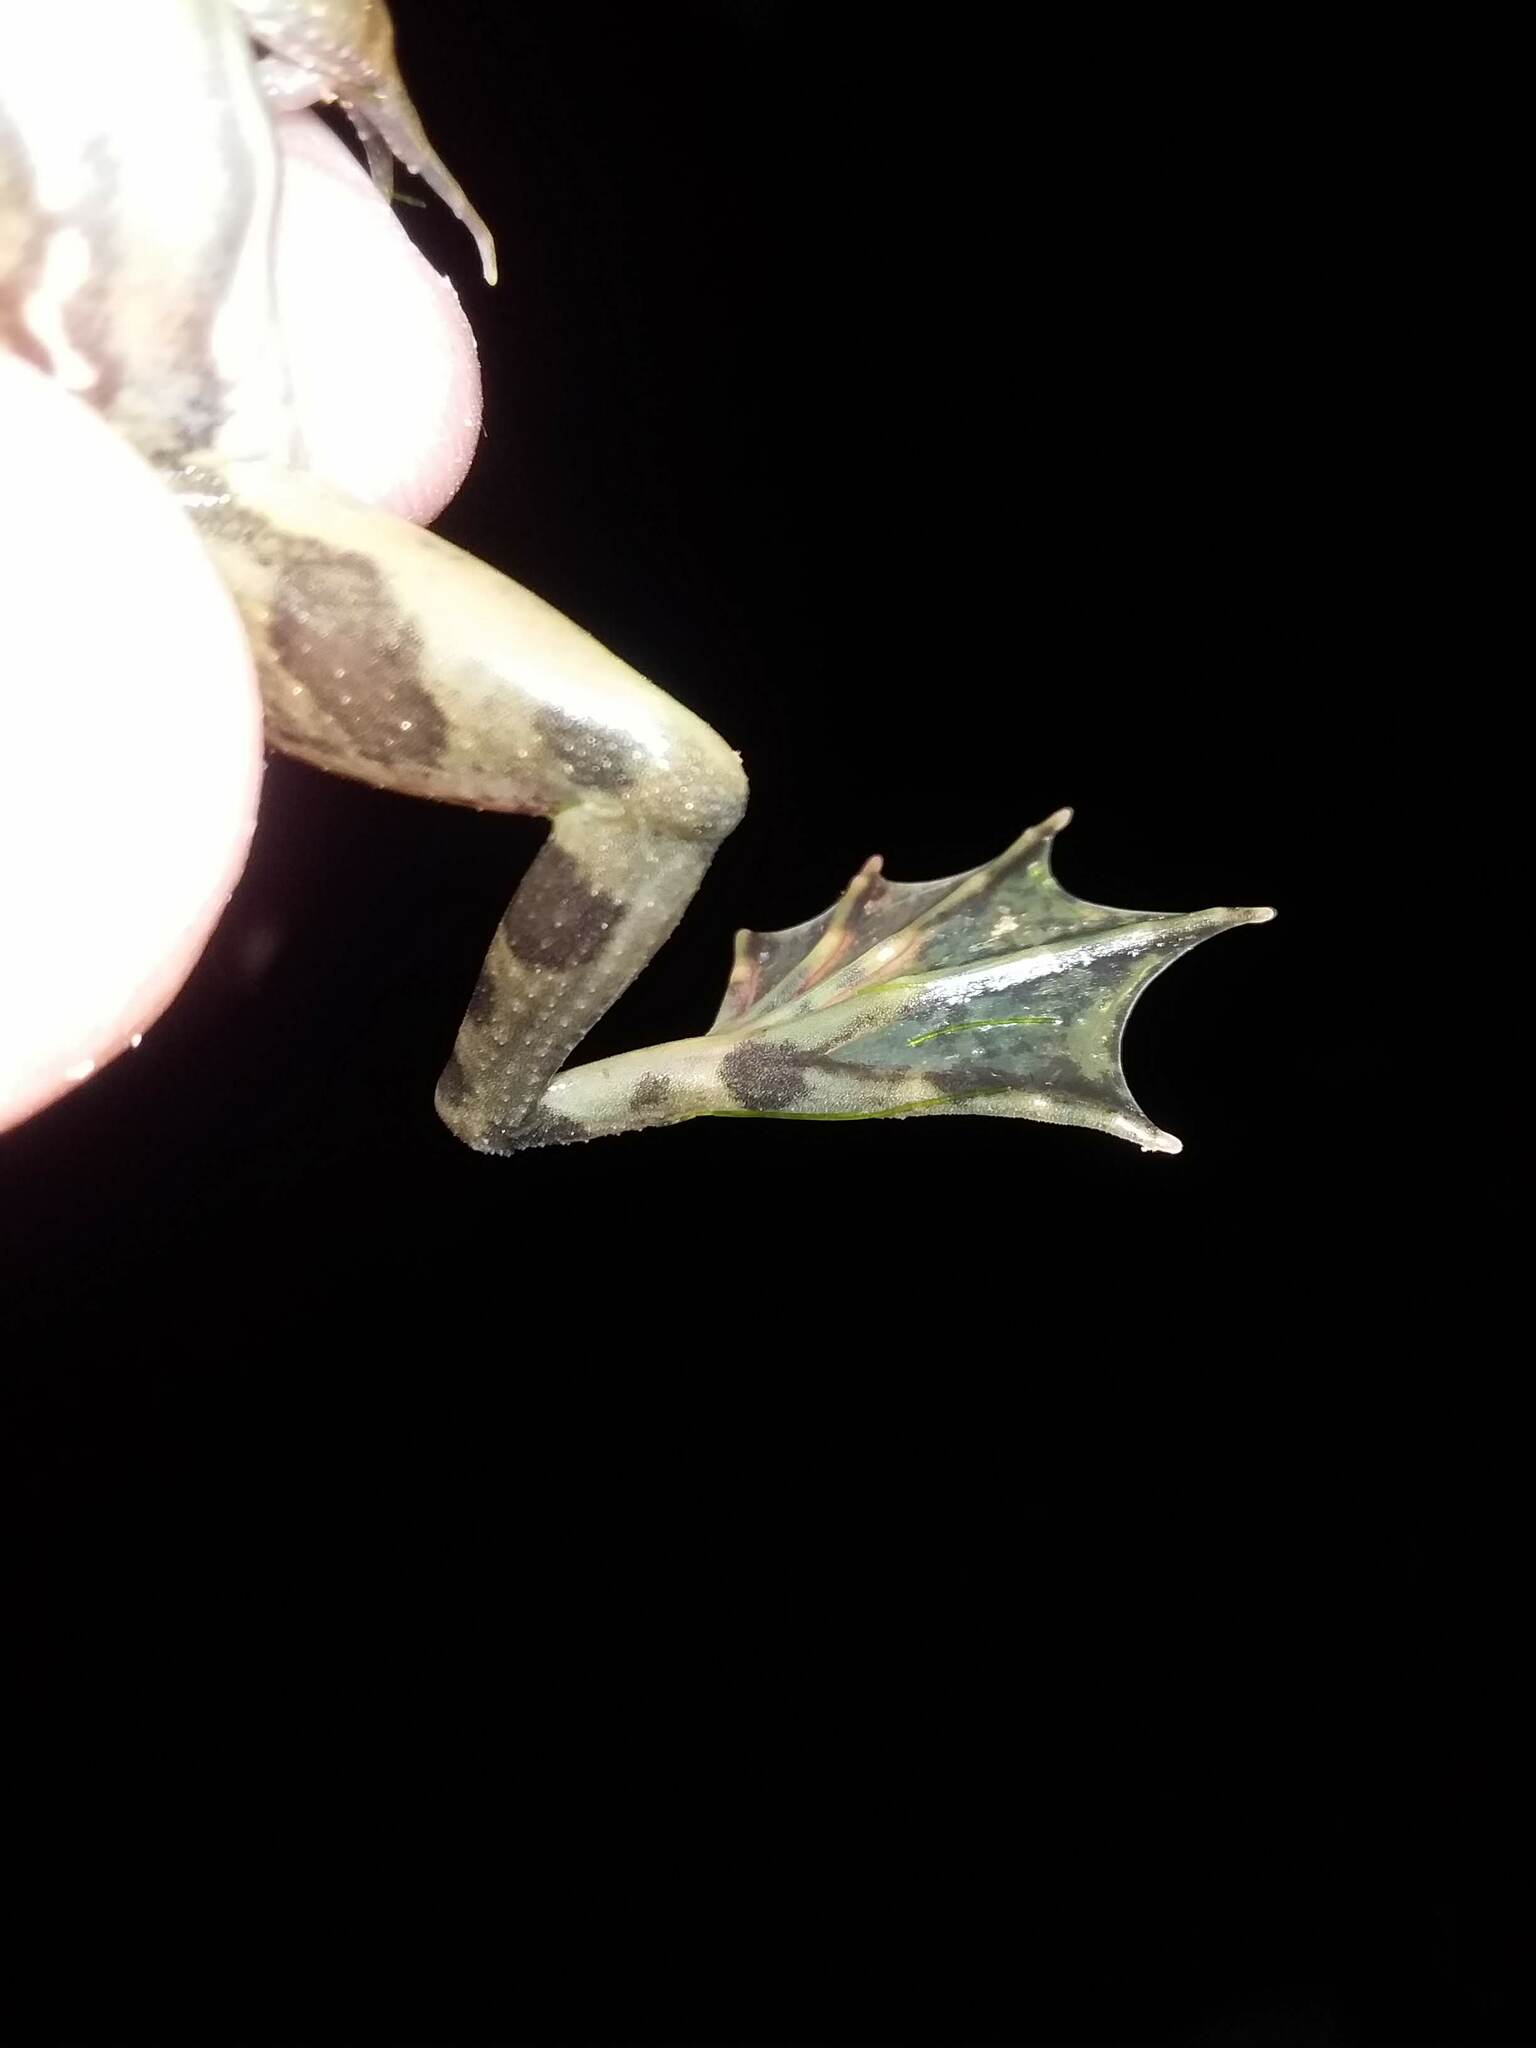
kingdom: Animalia
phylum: Chordata
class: Amphibia
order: Anura
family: Hylidae
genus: Pseudis
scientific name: Pseudis minuta
